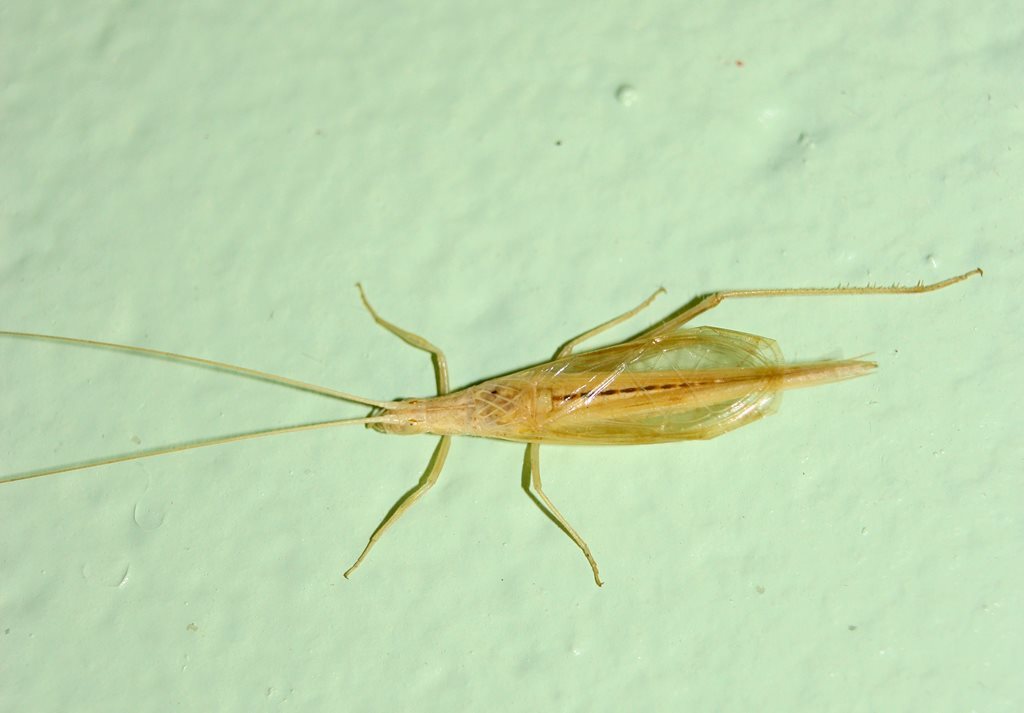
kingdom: Animalia
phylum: Arthropoda
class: Insecta
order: Orthoptera
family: Gryllidae
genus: Oecanthus
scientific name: Oecanthus rufescens
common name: Striped tree cricket
